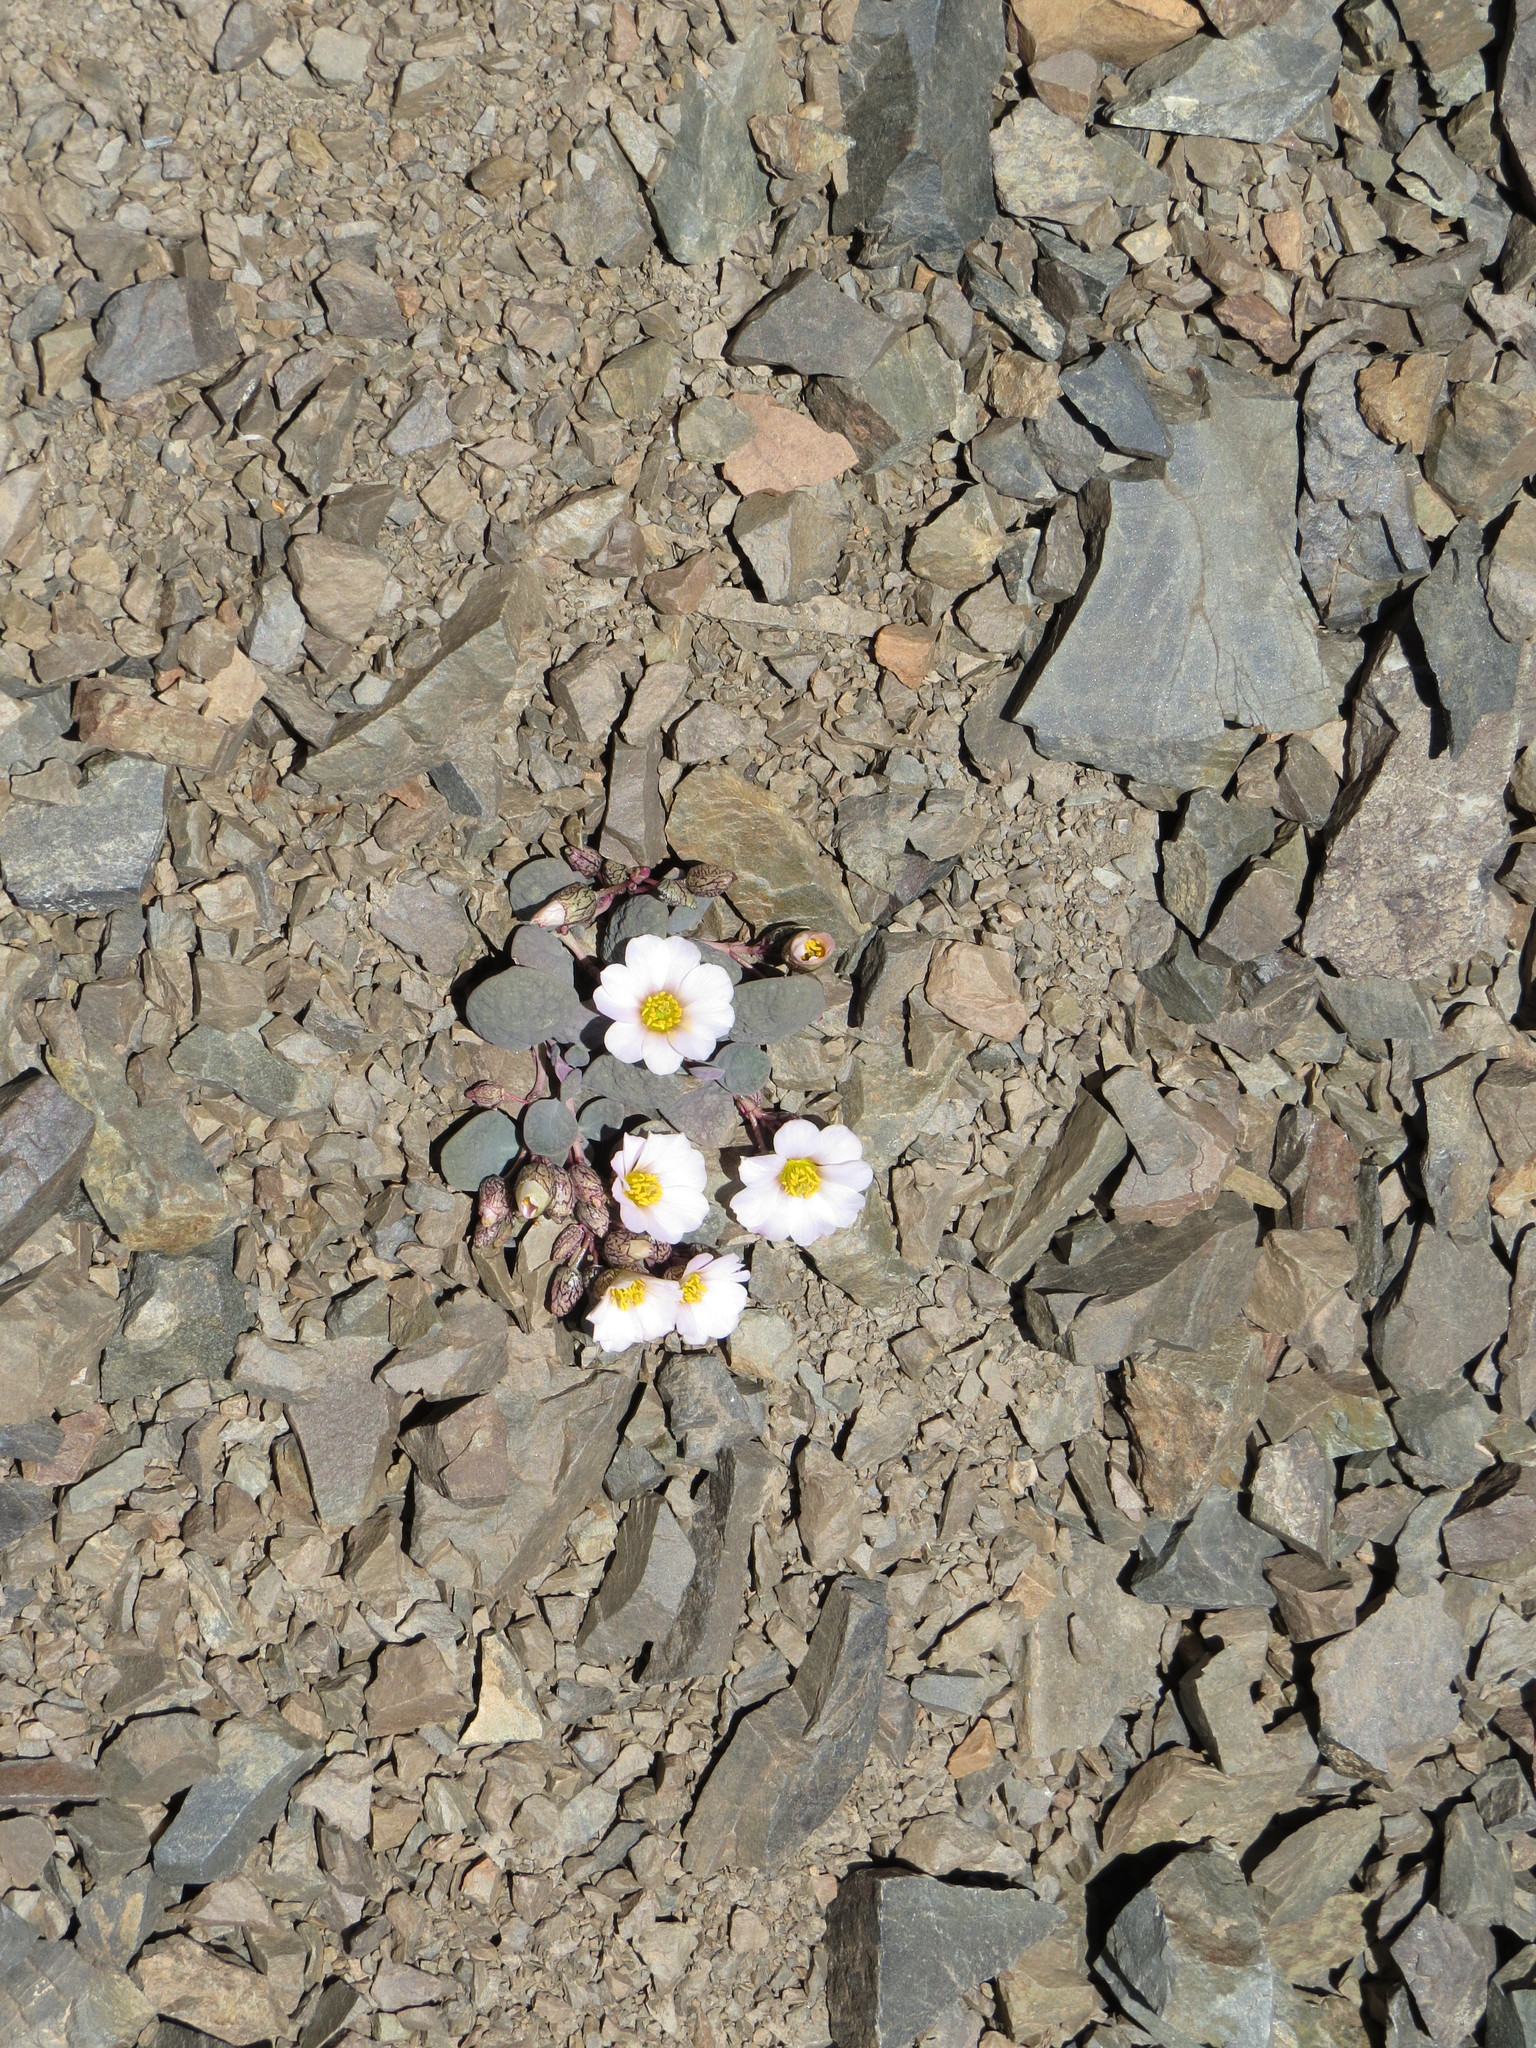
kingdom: Plantae
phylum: Tracheophyta
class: Magnoliopsida
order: Caryophyllales
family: Montiaceae
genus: Cistanthe
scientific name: Cistanthe picta
